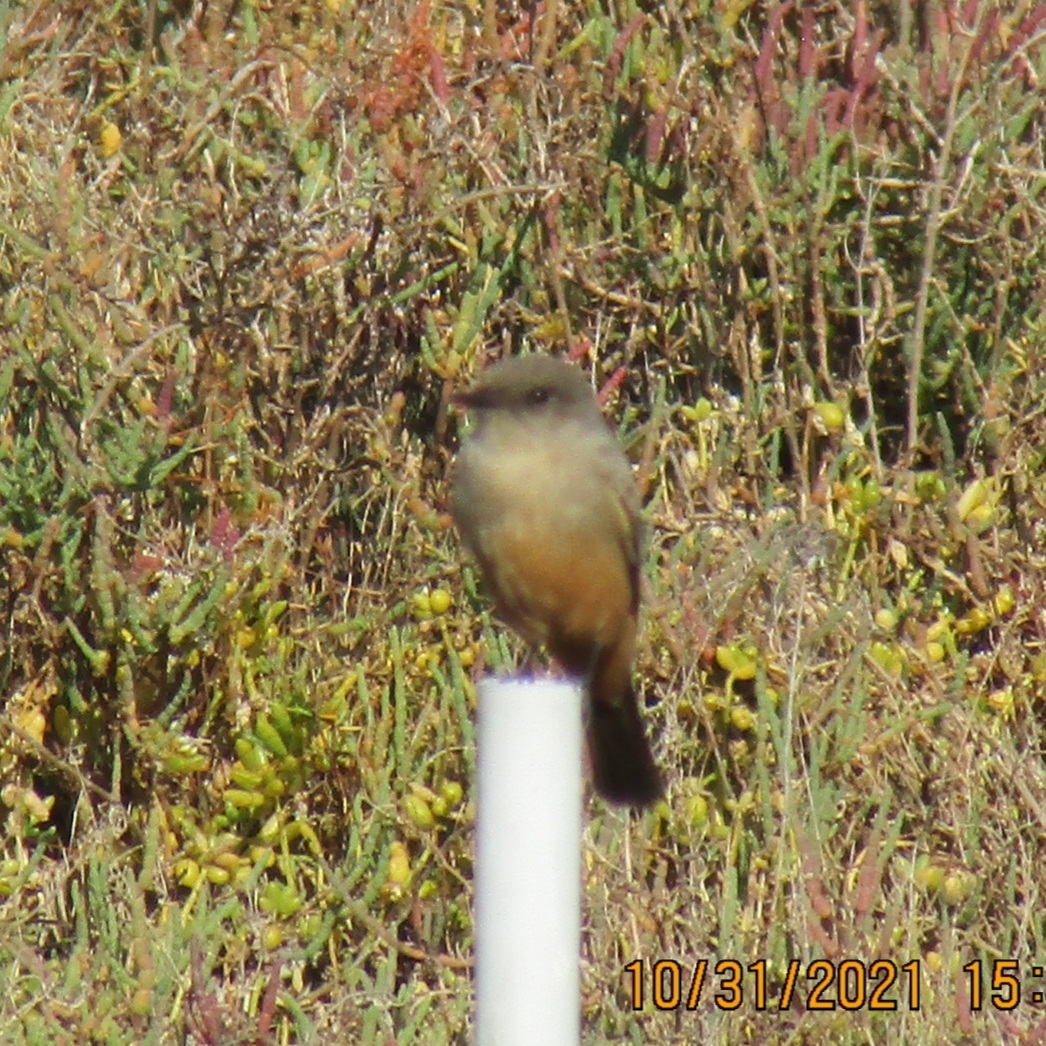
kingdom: Animalia
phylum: Chordata
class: Aves
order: Passeriformes
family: Tyrannidae
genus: Sayornis
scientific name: Sayornis saya
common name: Say's phoebe
